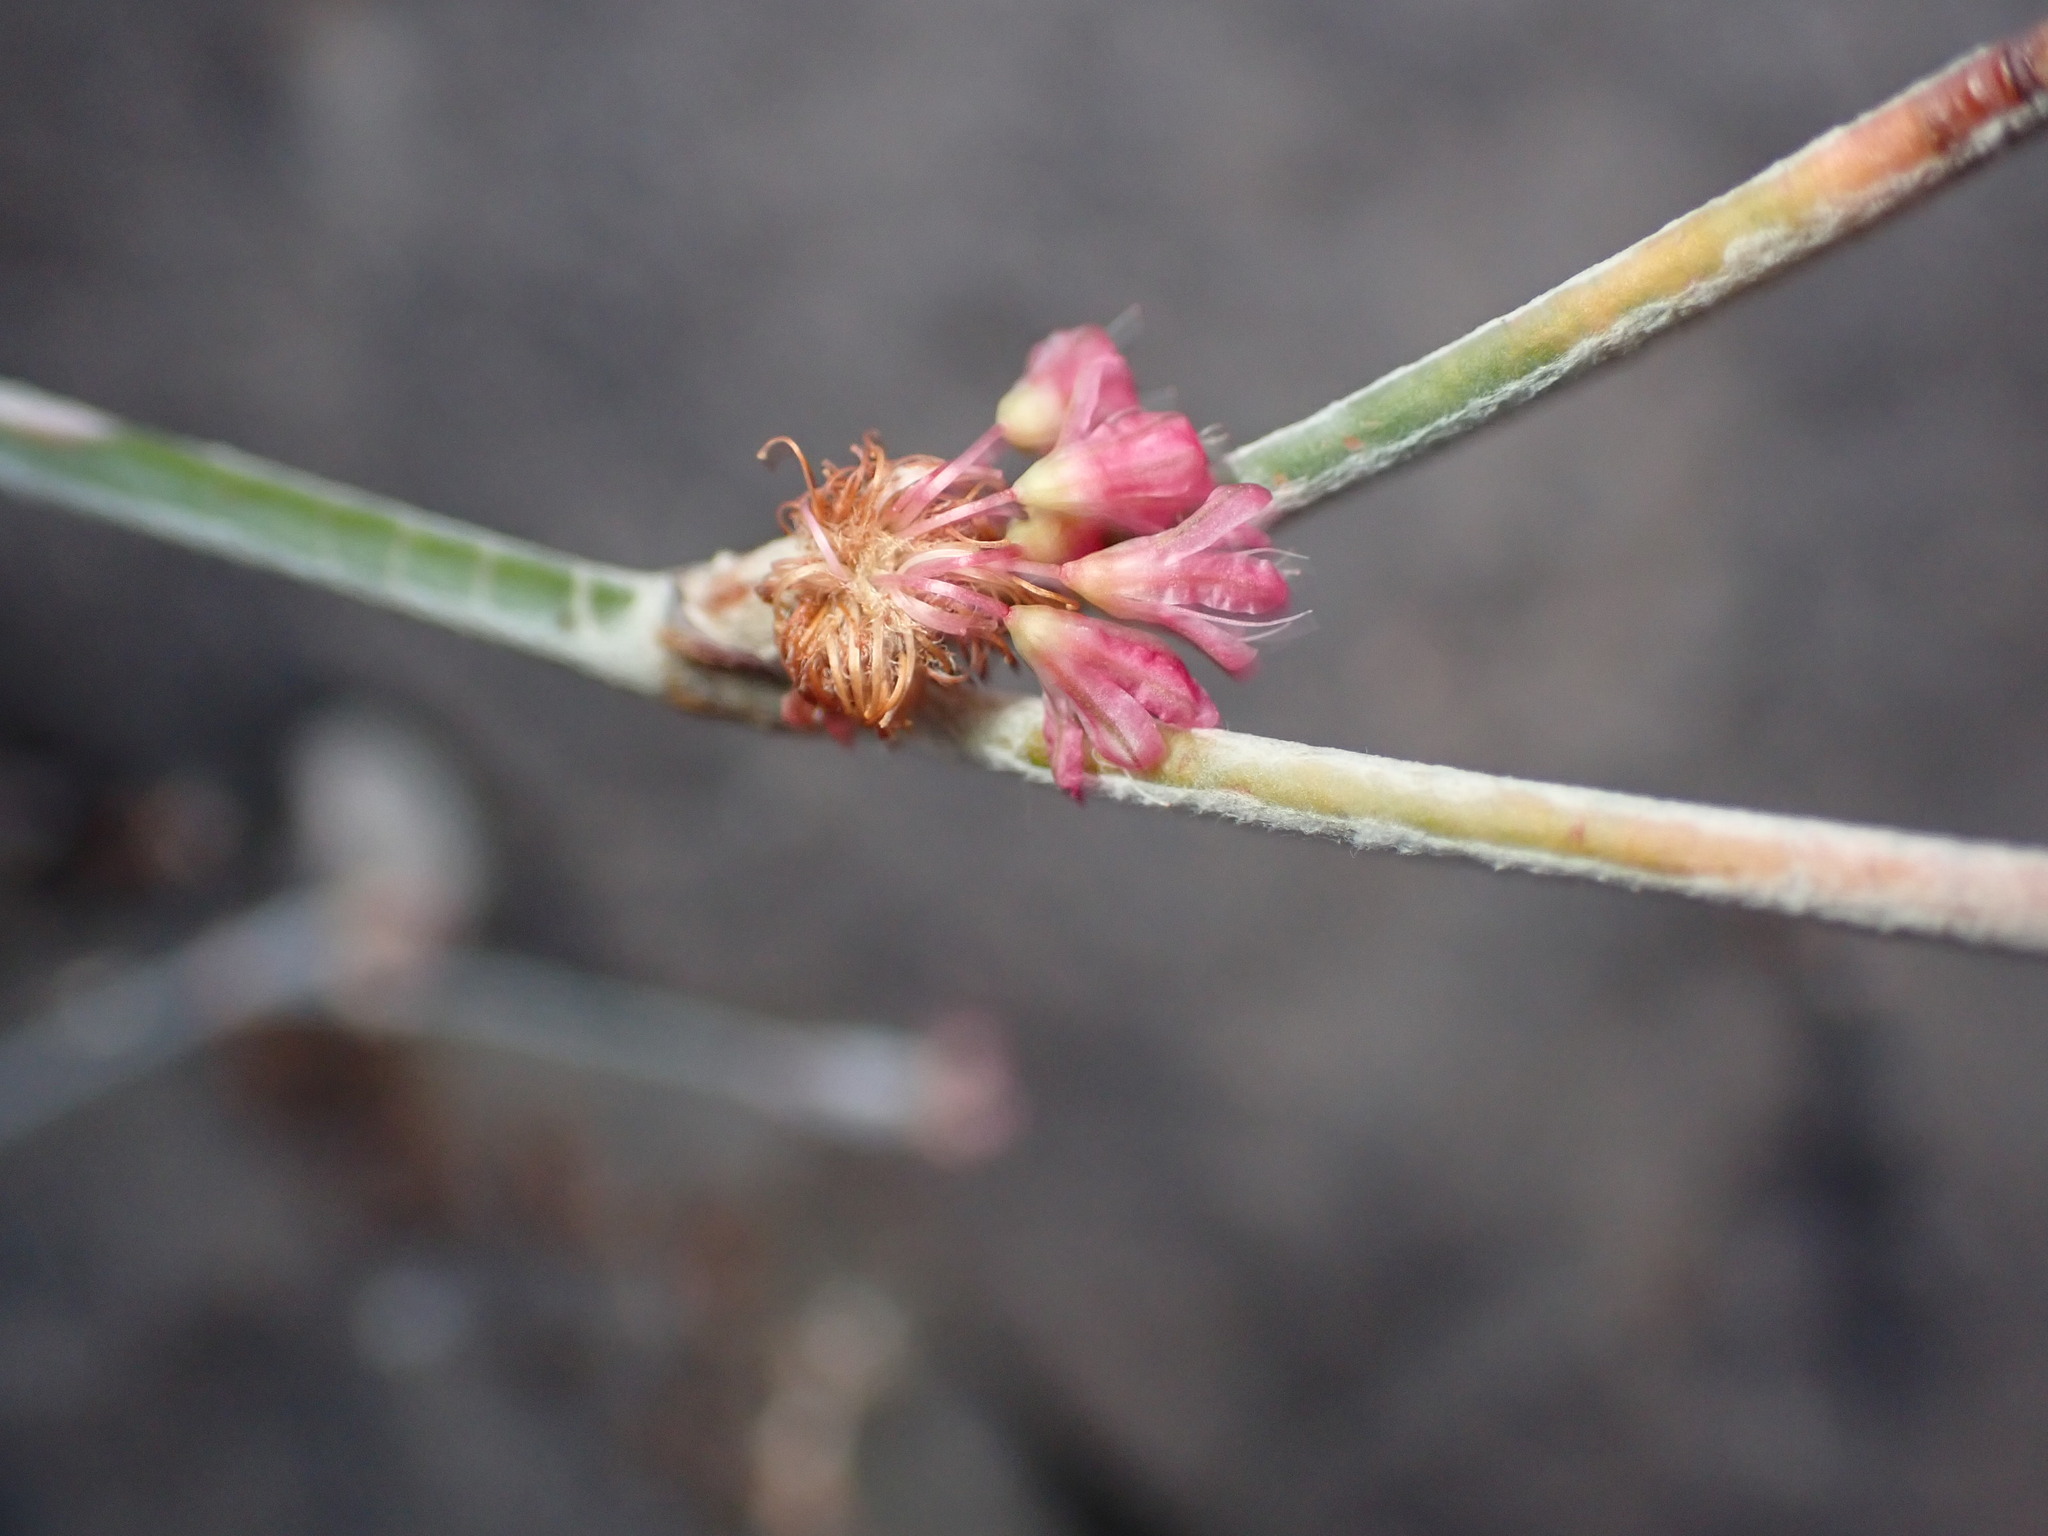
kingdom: Plantae
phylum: Tracheophyta
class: Magnoliopsida
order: Caryophyllales
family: Polygonaceae
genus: Eriogonum
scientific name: Eriogonum elongatum
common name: Long-stem wild buckwheat
